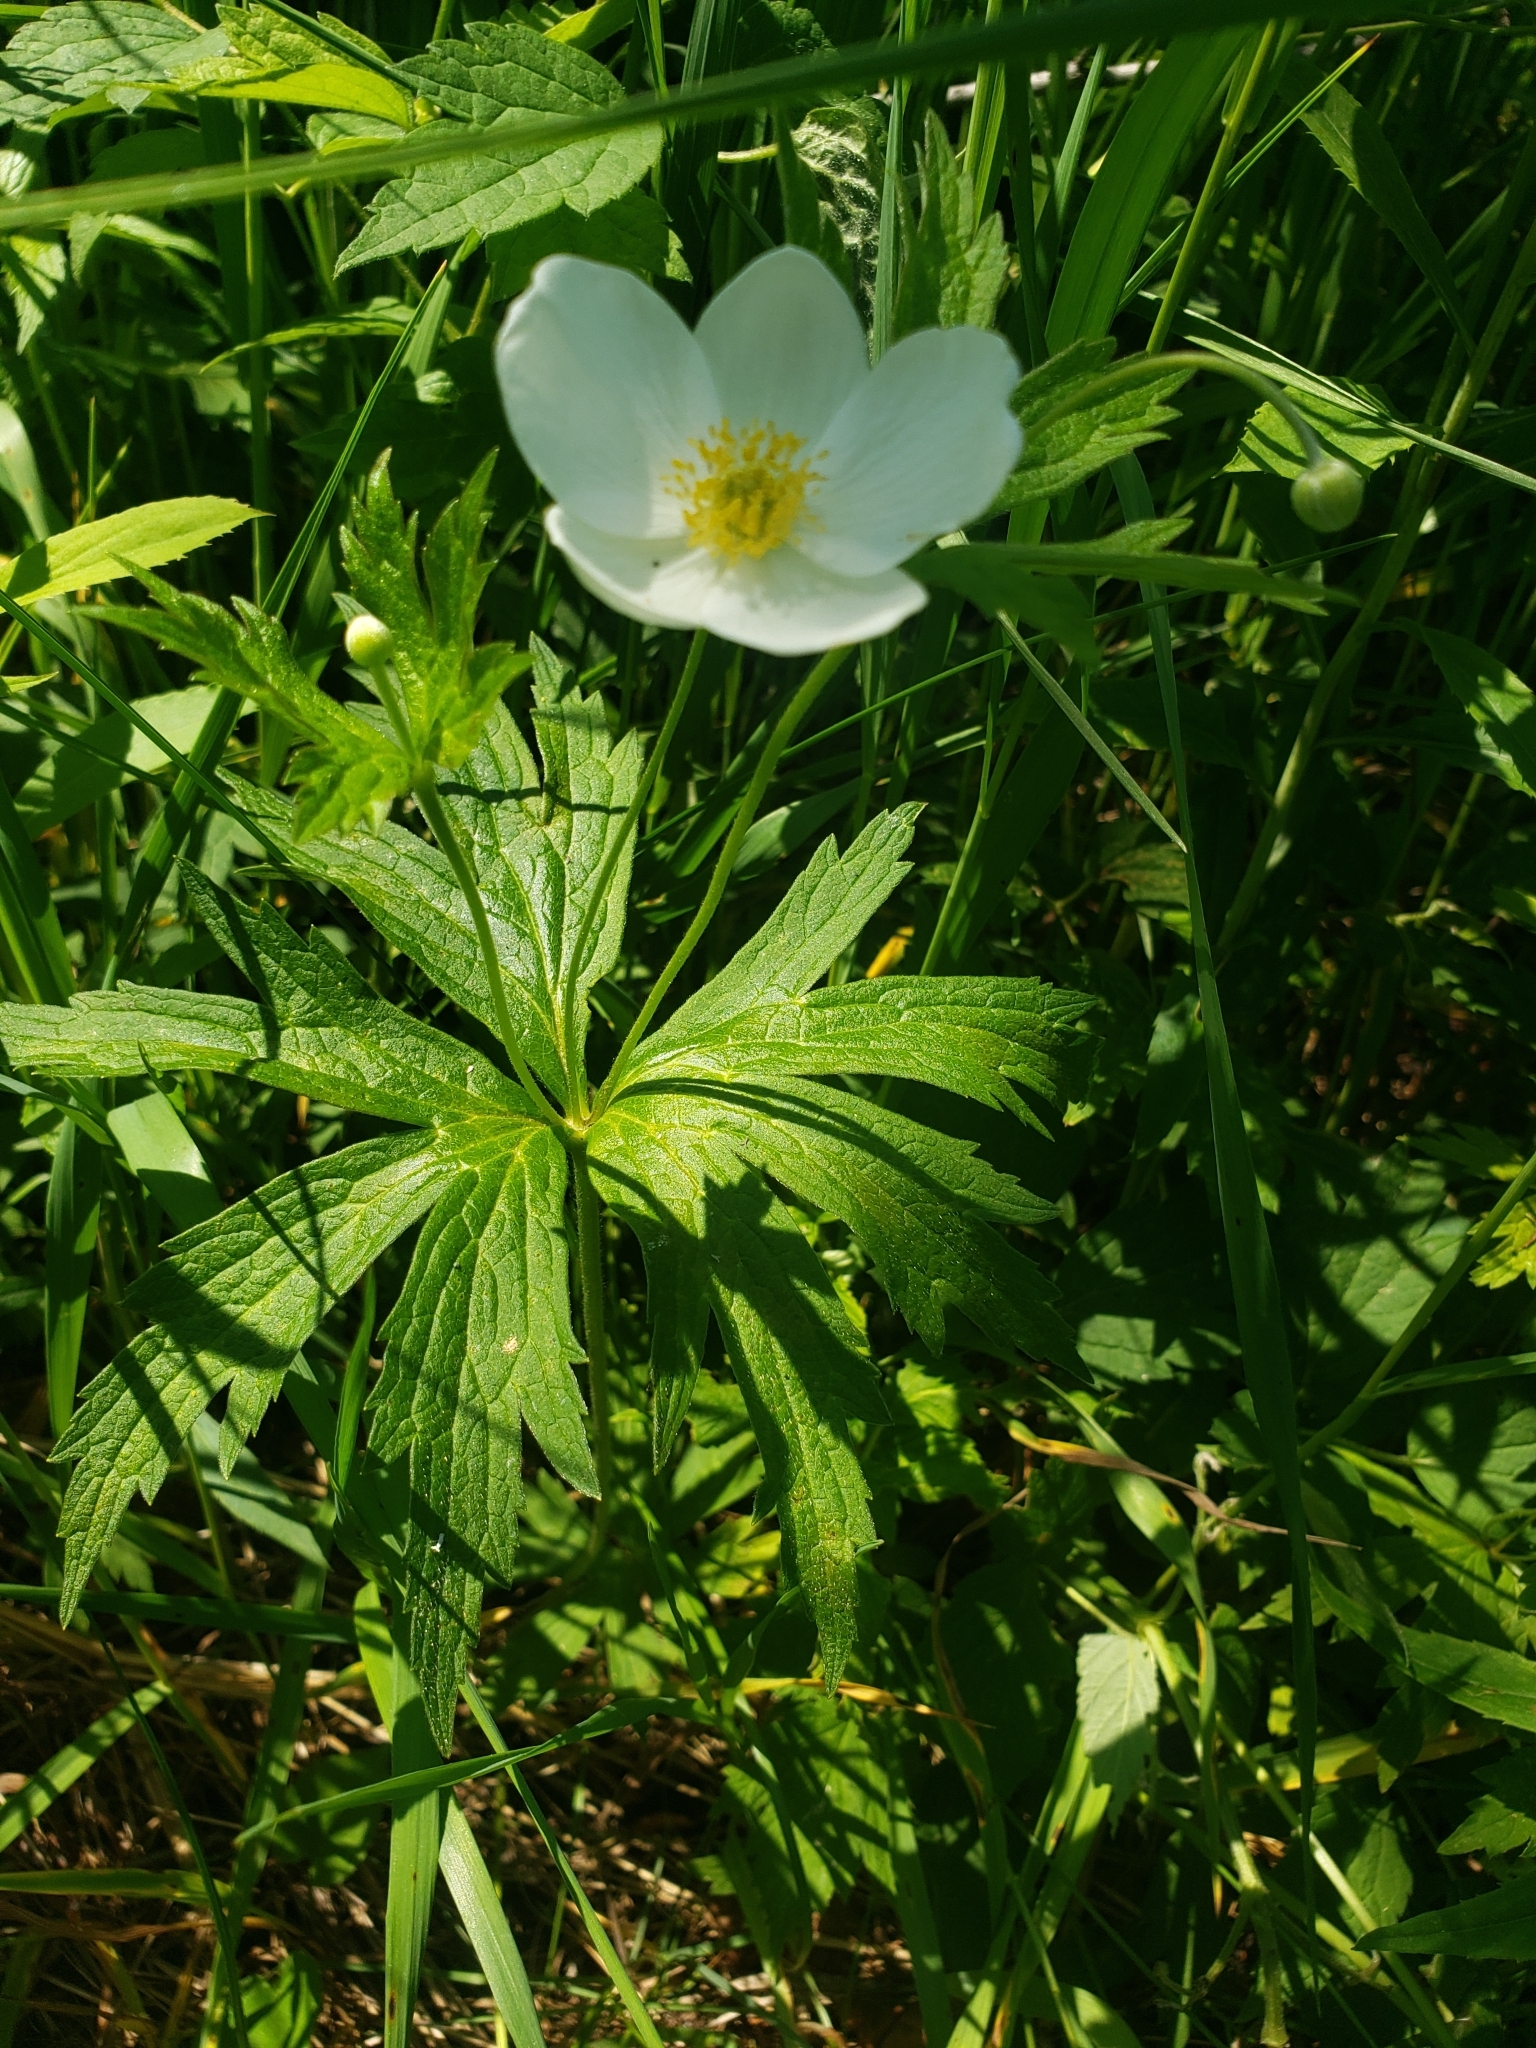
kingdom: Plantae
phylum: Tracheophyta
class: Magnoliopsida
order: Ranunculales
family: Ranunculaceae
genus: Anemonastrum
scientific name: Anemonastrum canadense
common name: Canada anemone
